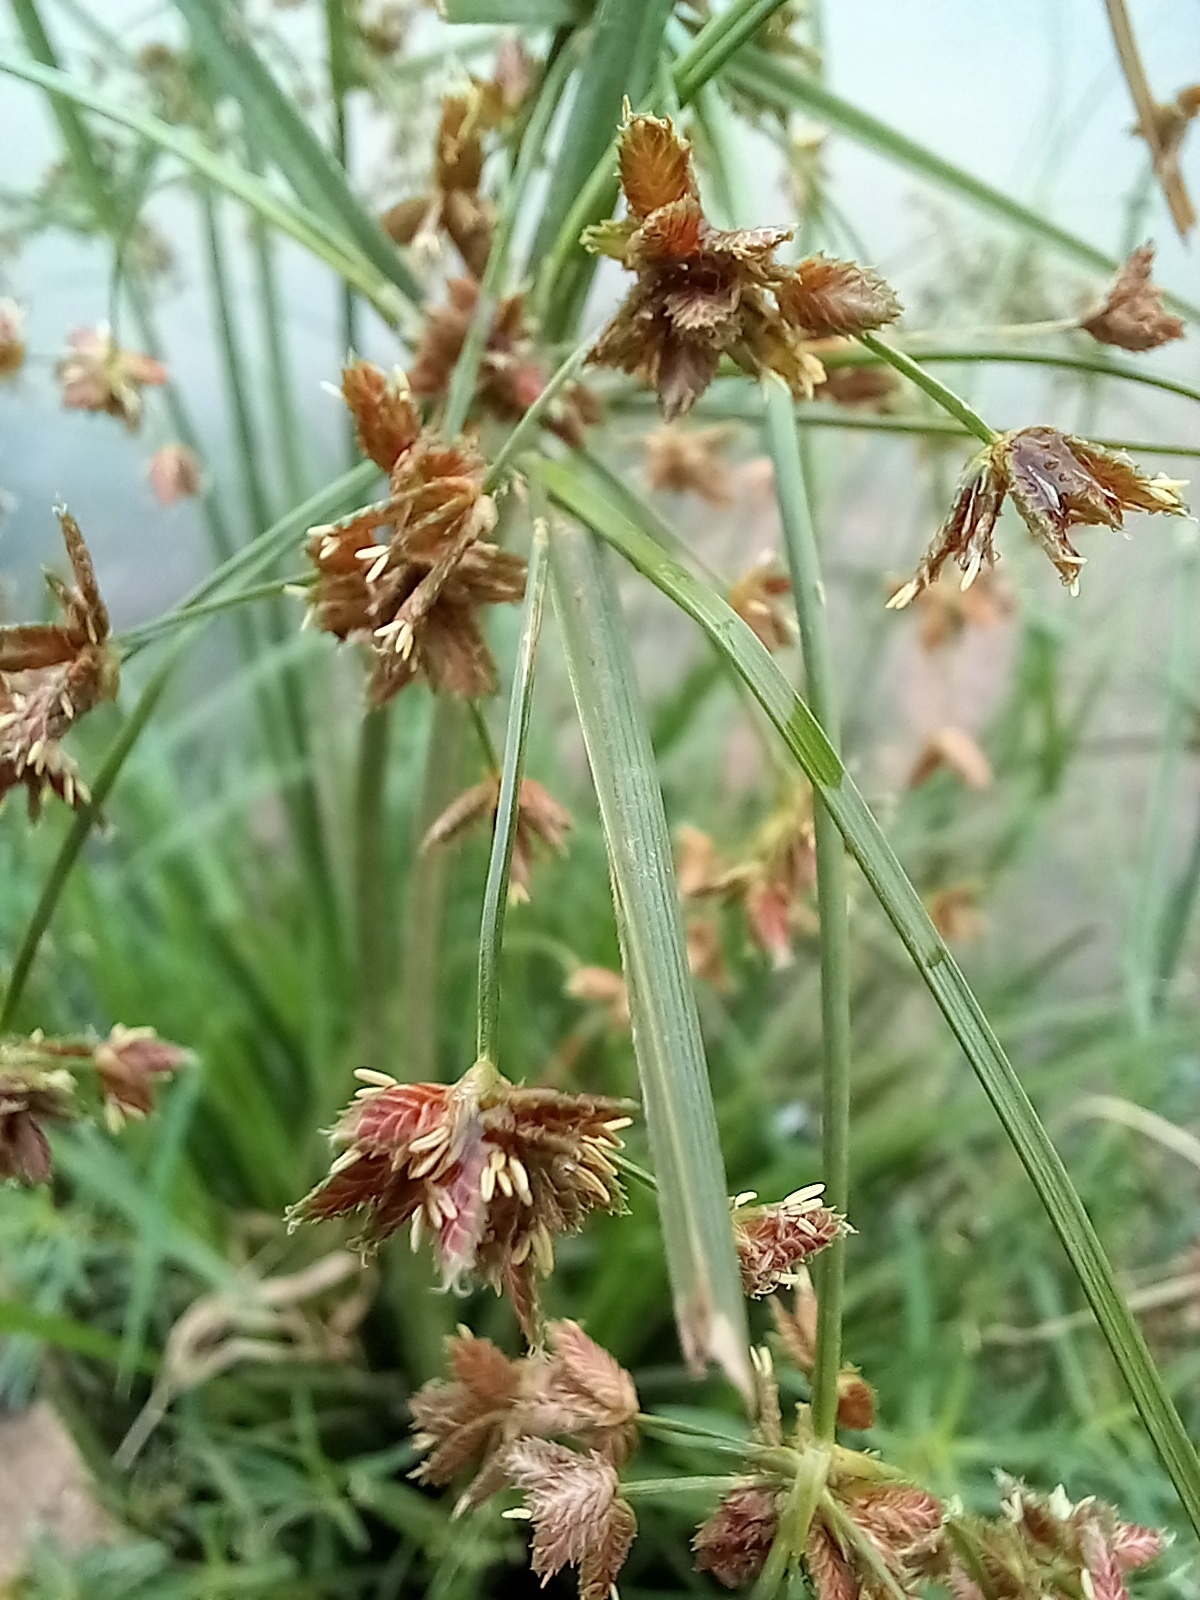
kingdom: Plantae
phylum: Tracheophyta
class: Liliopsida
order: Poales
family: Cyperaceae
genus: Cyperus
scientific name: Cyperus pulcher
